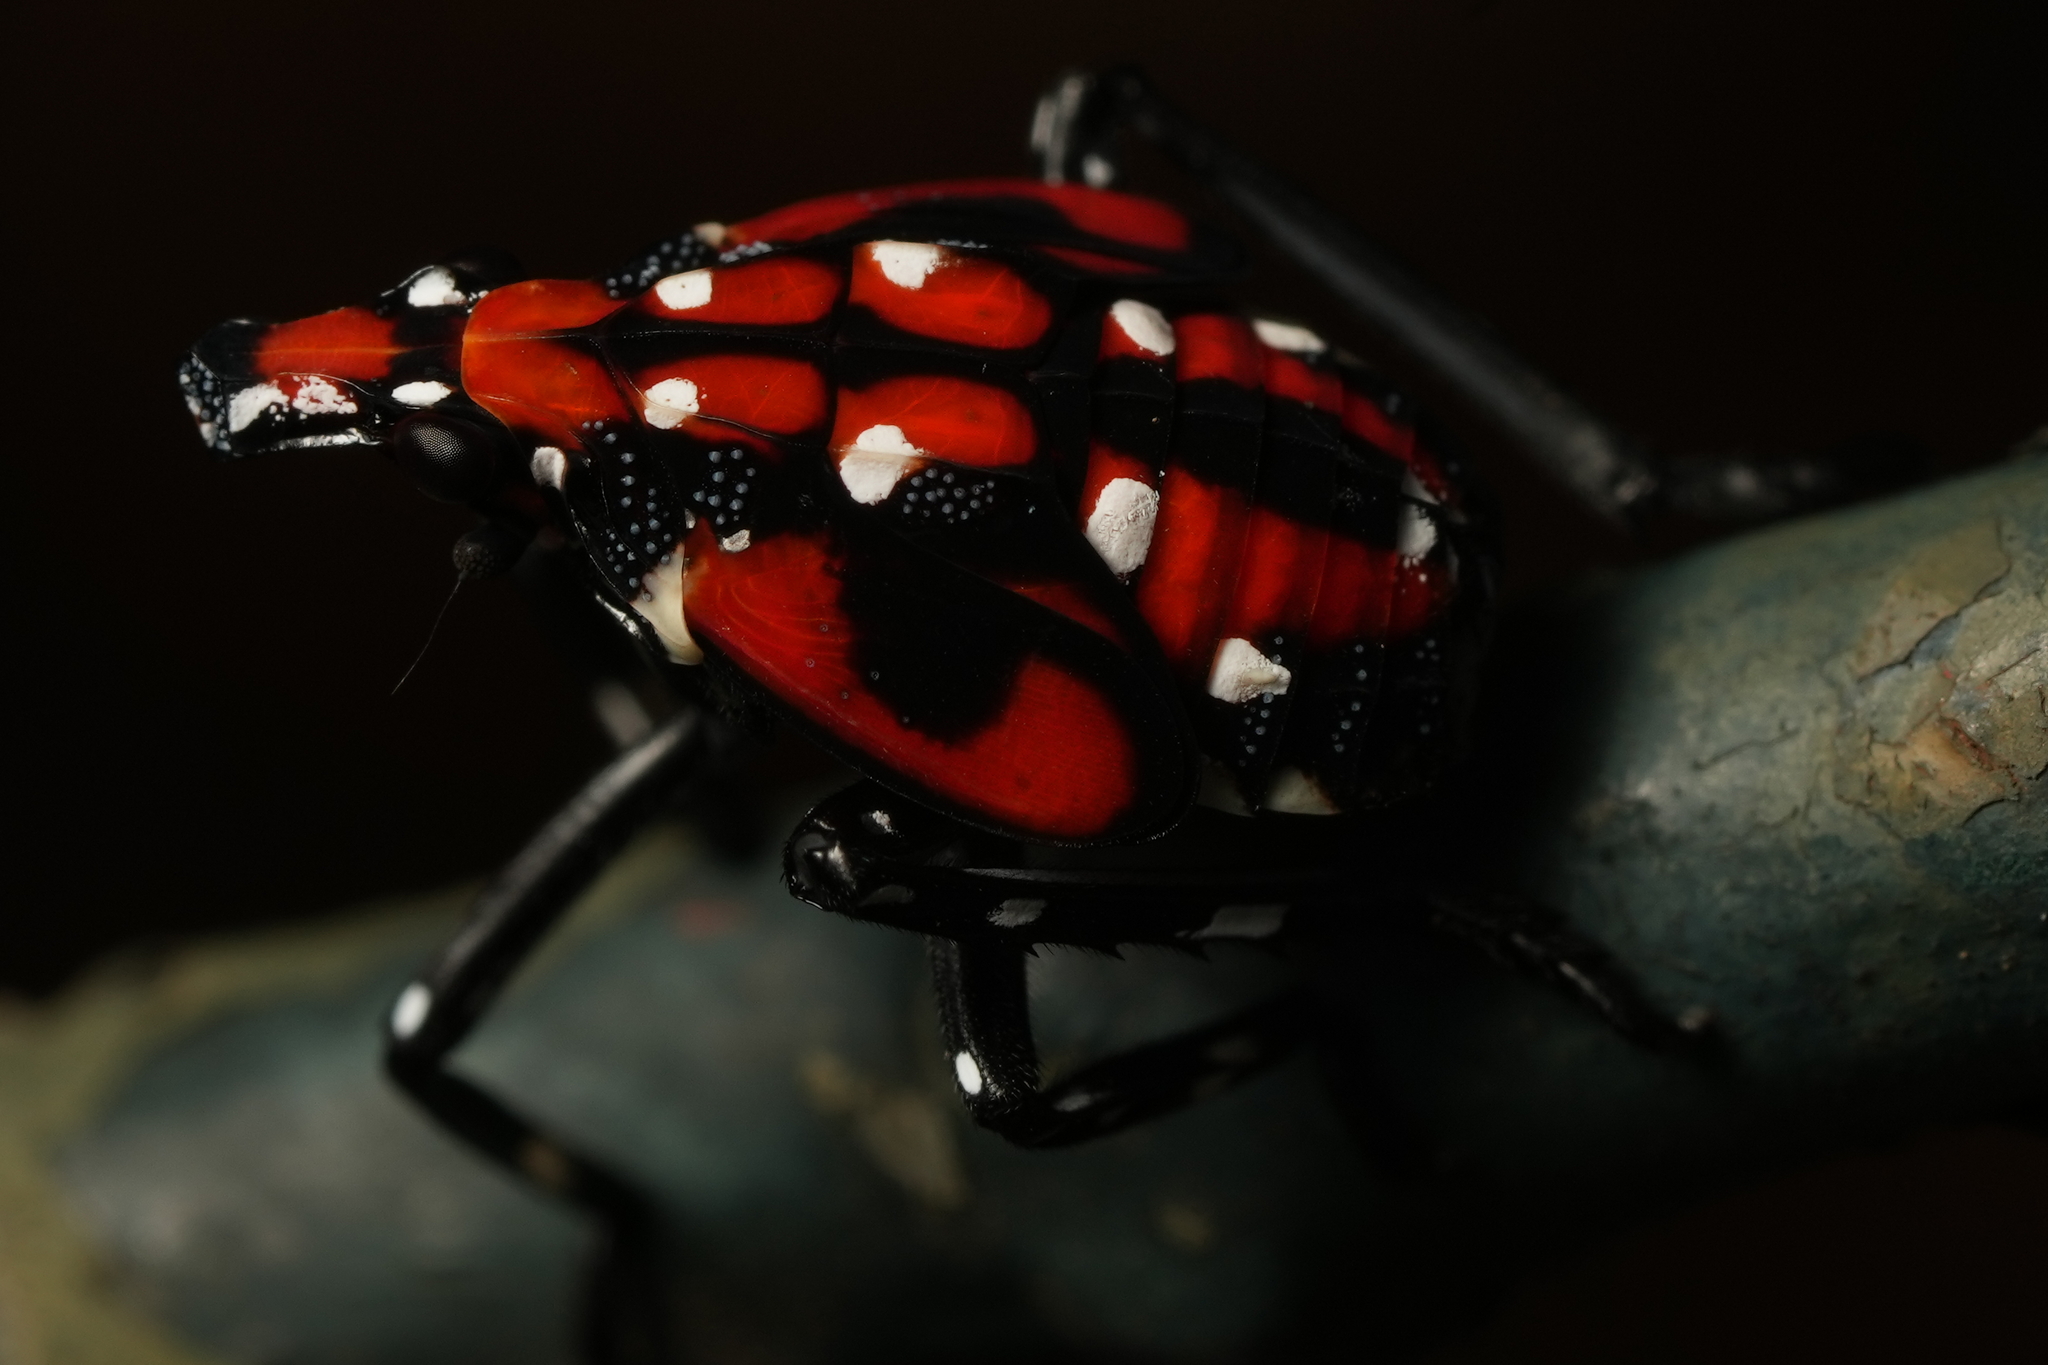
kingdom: Animalia
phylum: Arthropoda
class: Insecta
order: Hemiptera
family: Fulgoridae
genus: Lycorma
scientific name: Lycorma delicatula
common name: Spotted lanternfly
